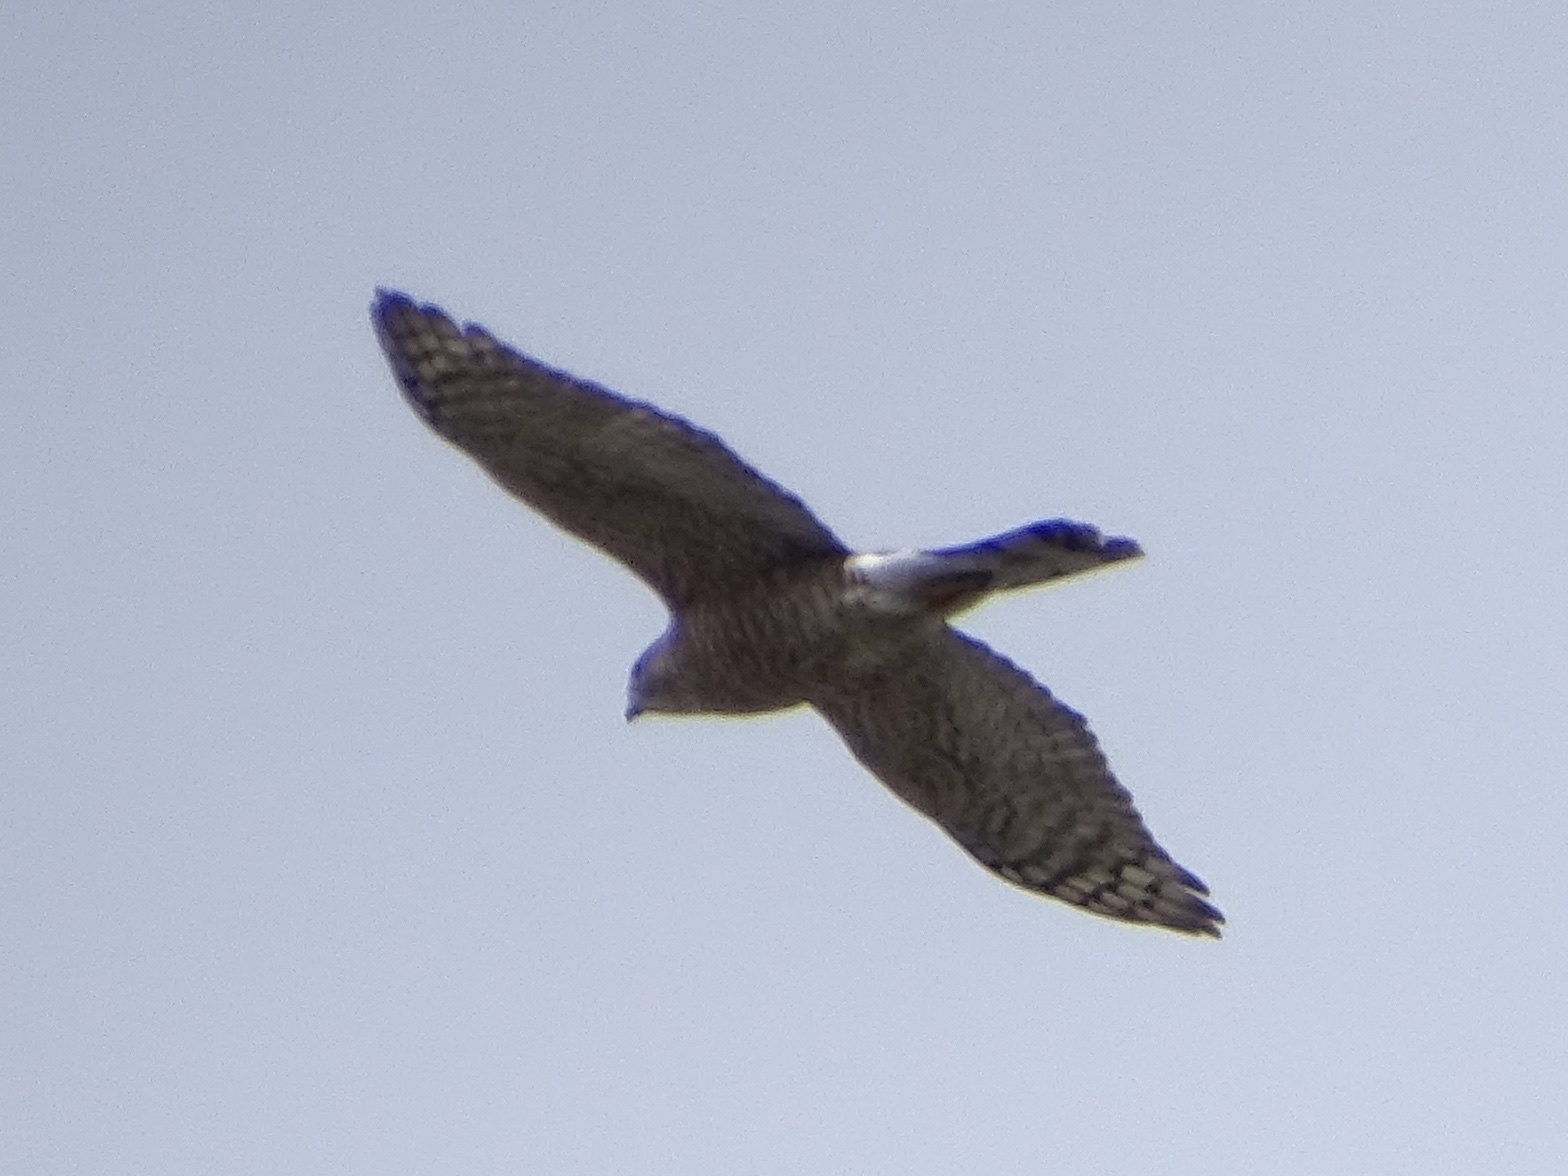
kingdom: Animalia
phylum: Chordata
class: Aves
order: Accipitriformes
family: Accipitridae
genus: Accipiter
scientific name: Accipiter striatus
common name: Sharp-shinned hawk
